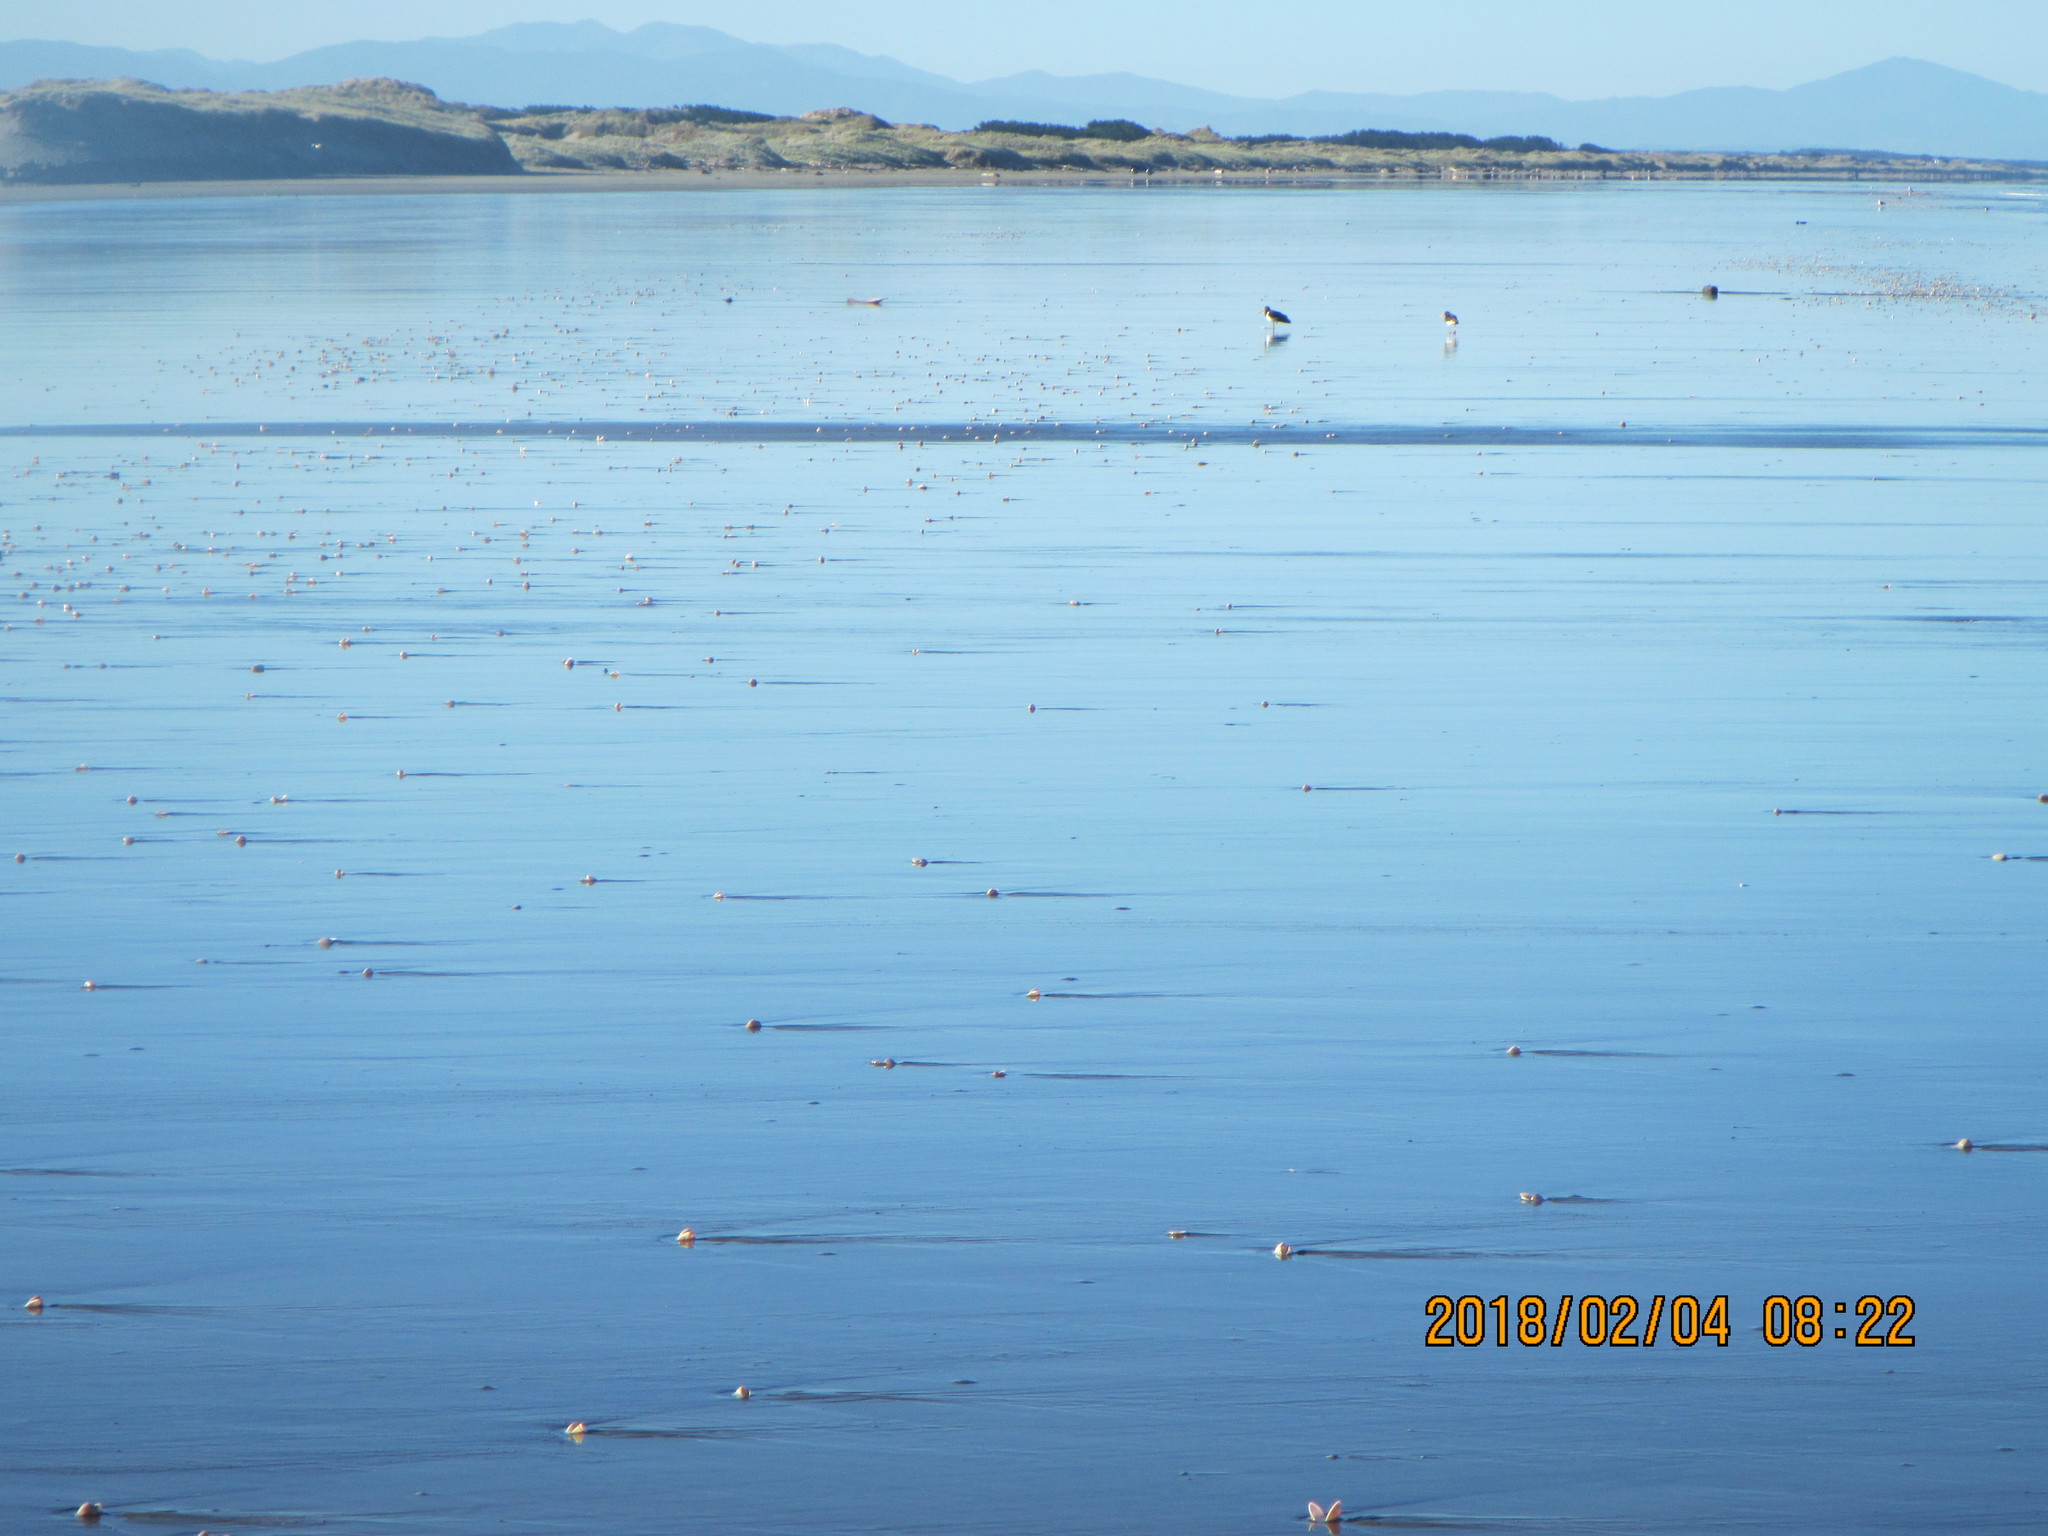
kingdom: Animalia
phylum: Chordata
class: Aves
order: Charadriiformes
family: Haematopodidae
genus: Haematopus
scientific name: Haematopus finschi
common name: South island oystercatcher
